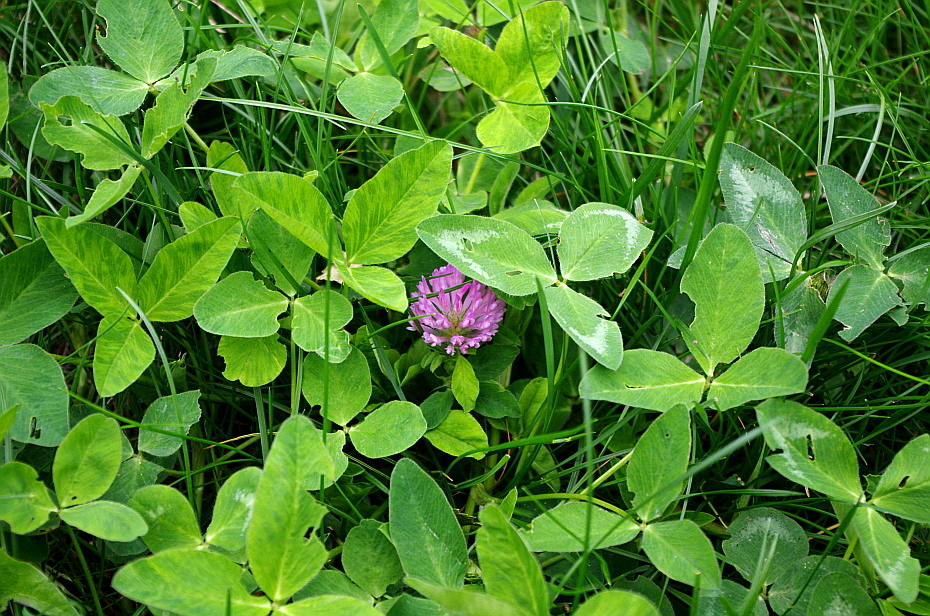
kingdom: Plantae
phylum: Tracheophyta
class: Magnoliopsida
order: Fabales
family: Fabaceae
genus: Trifolium
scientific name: Trifolium pratense
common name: Red clover
